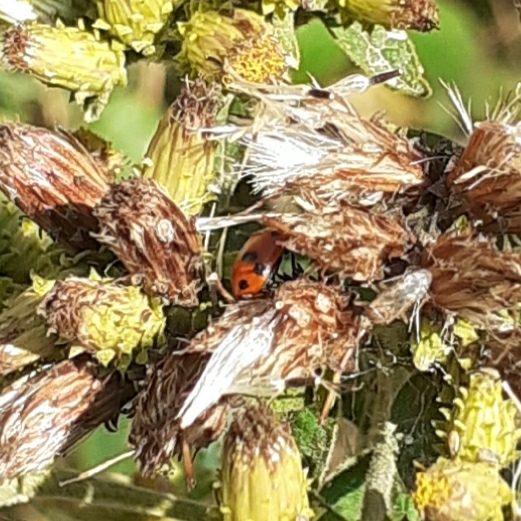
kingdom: Animalia
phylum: Arthropoda
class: Insecta
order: Coleoptera
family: Coccinellidae
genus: Hippodamia
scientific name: Hippodamia variegata
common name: Ladybird beetle
